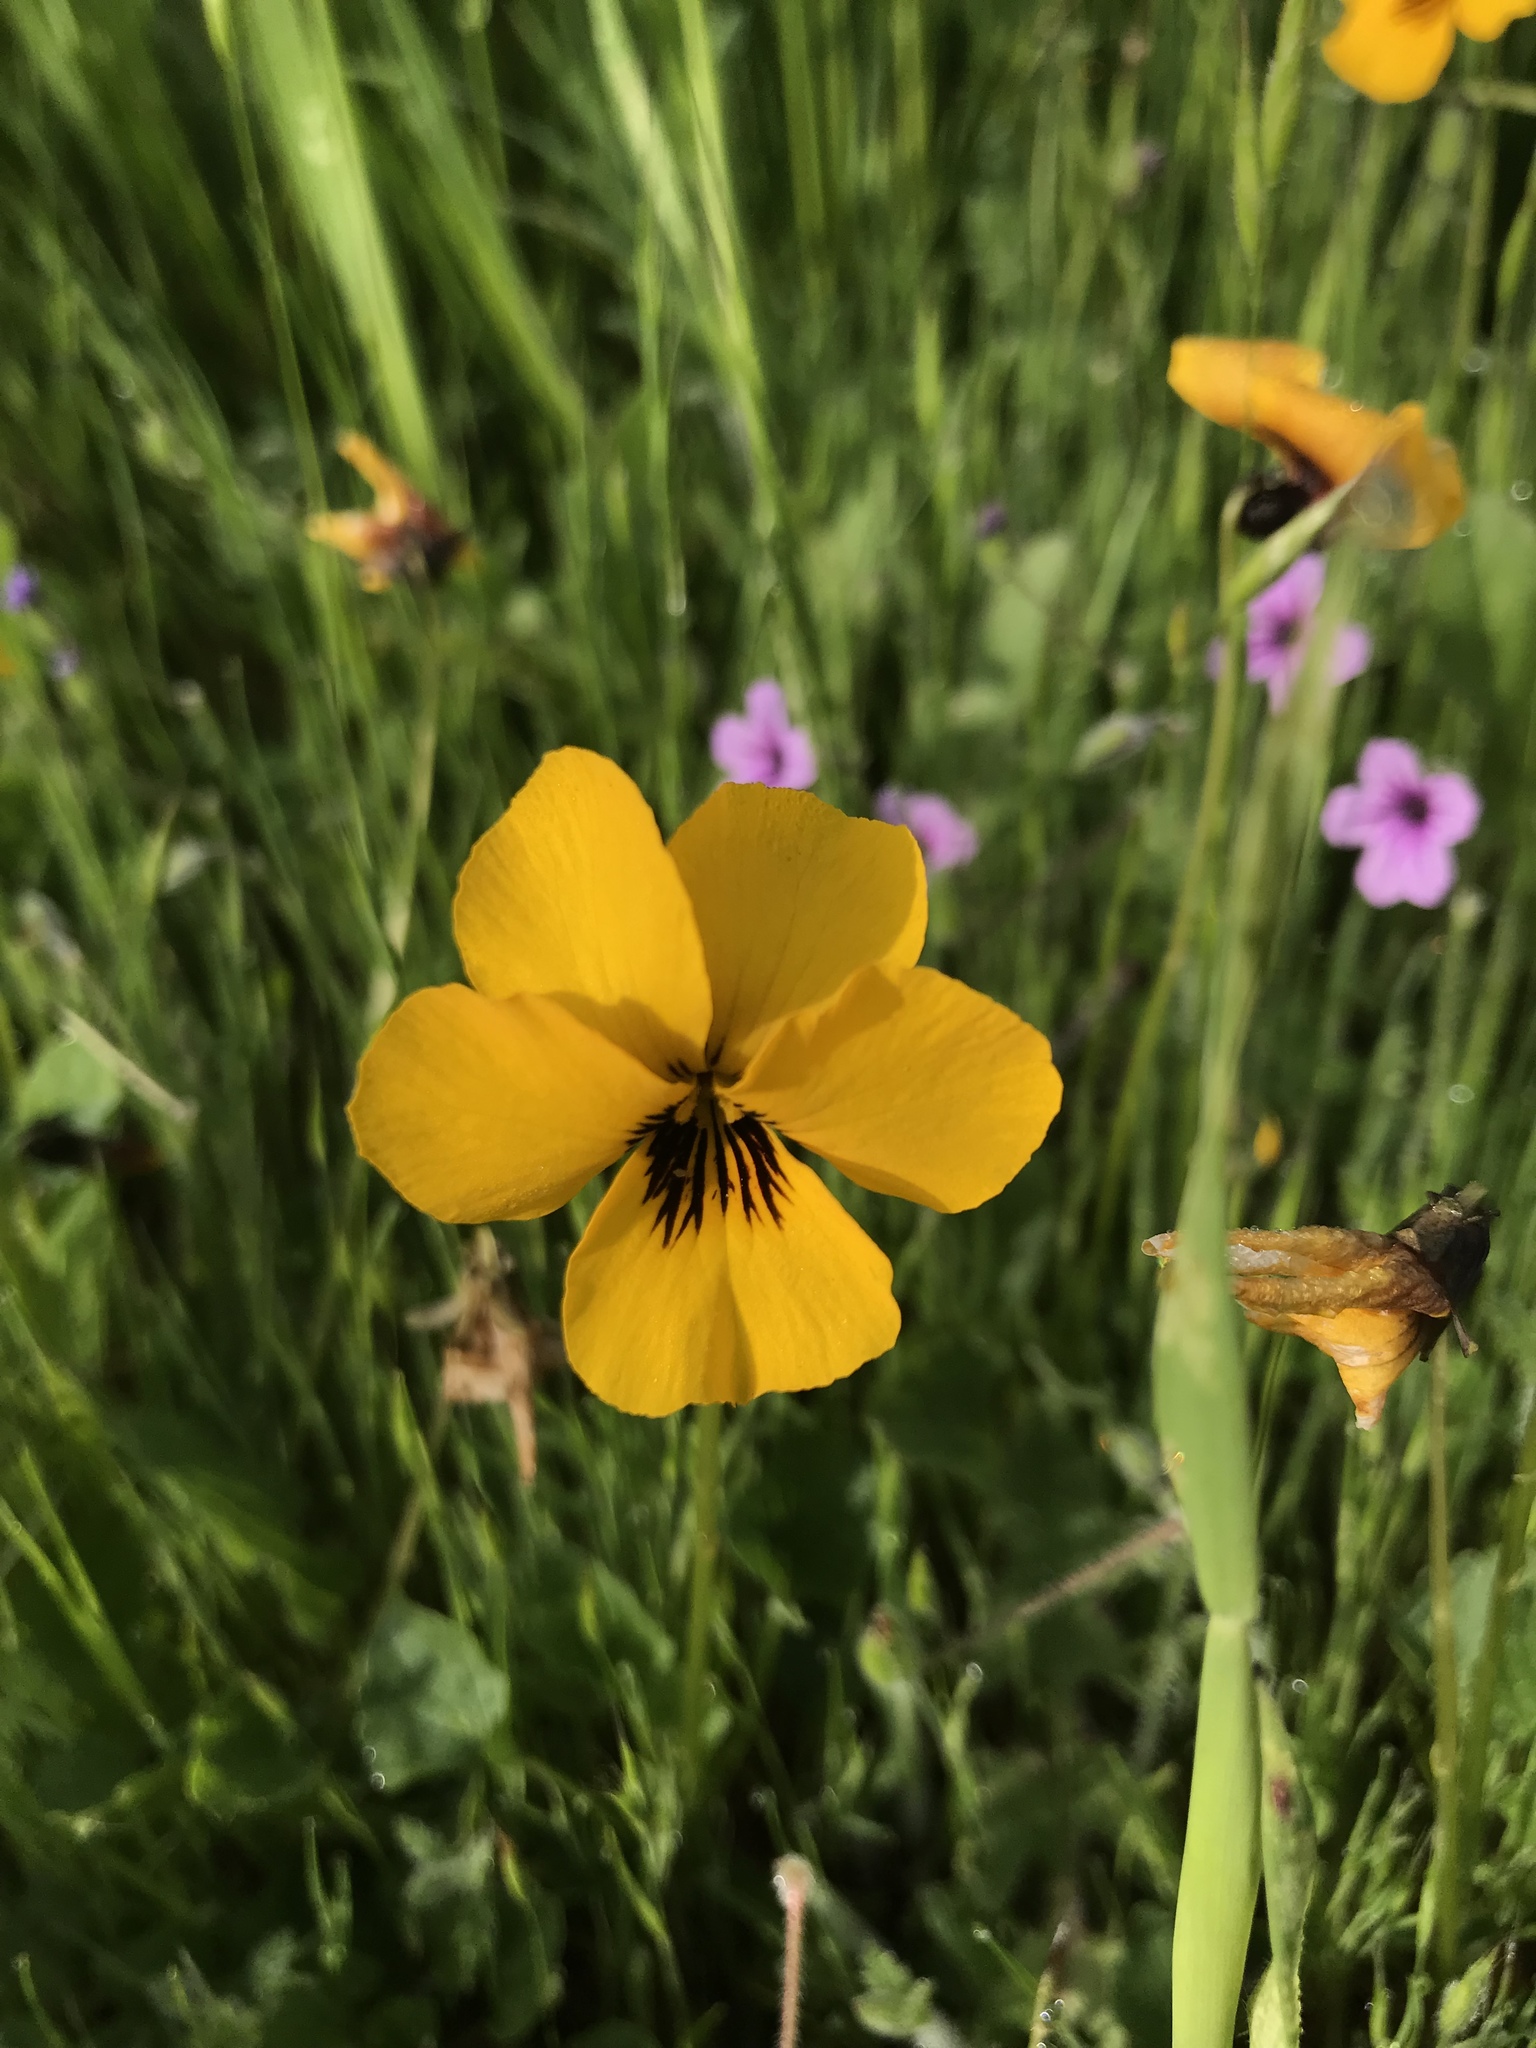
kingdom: Plantae
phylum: Tracheophyta
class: Magnoliopsida
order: Malpighiales
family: Violaceae
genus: Viola
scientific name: Viola pedunculata
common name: California golden violet
